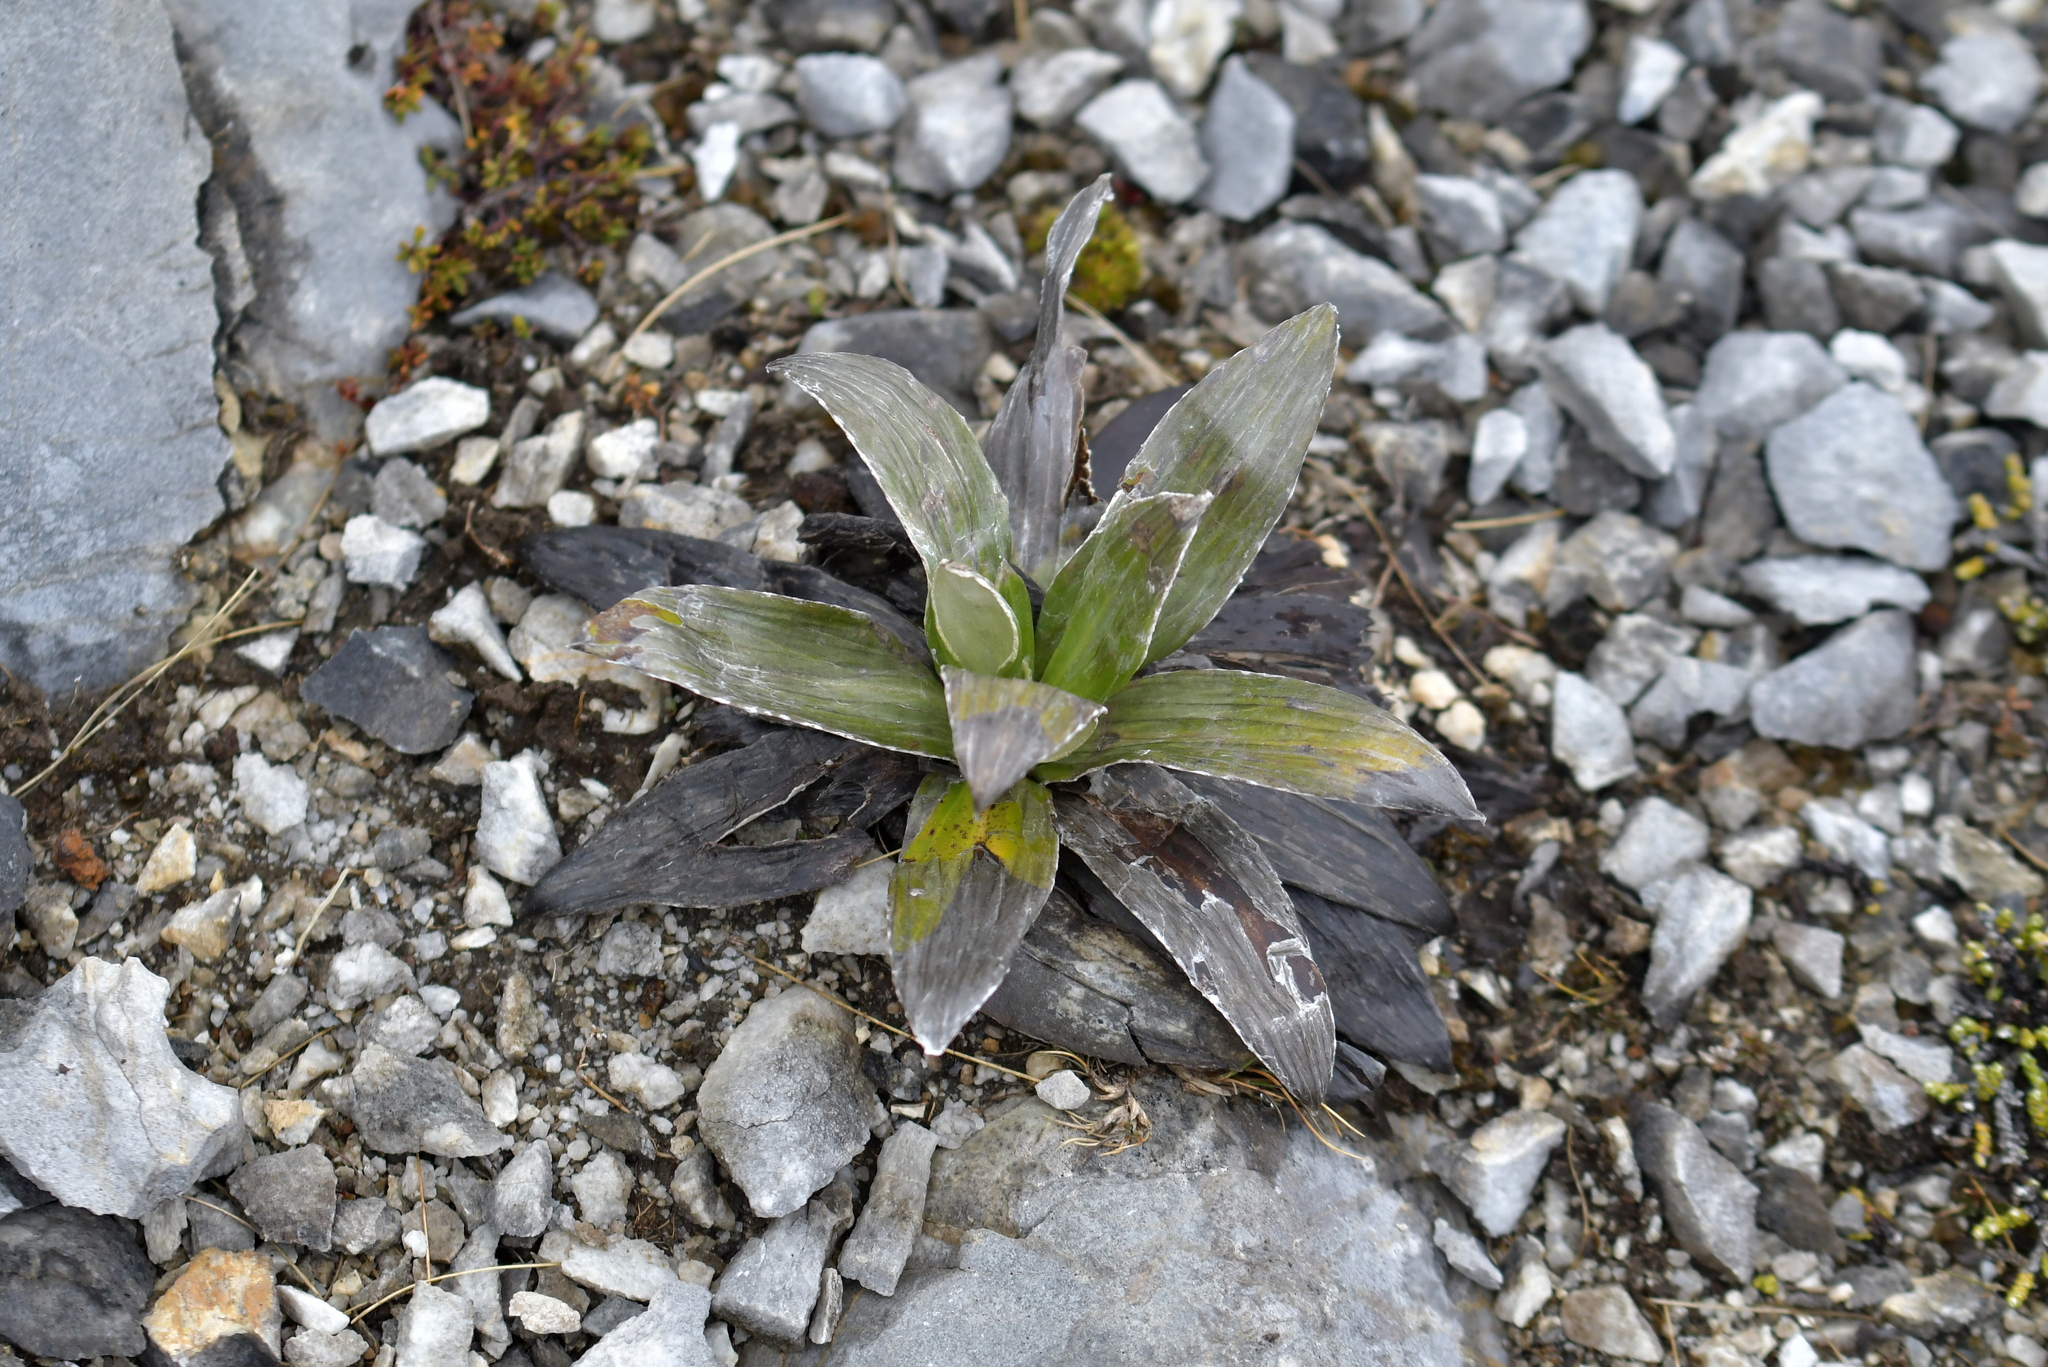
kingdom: Plantae
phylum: Tracheophyta
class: Magnoliopsida
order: Asterales
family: Asteraceae
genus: Celmisia
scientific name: Celmisia semicordata
